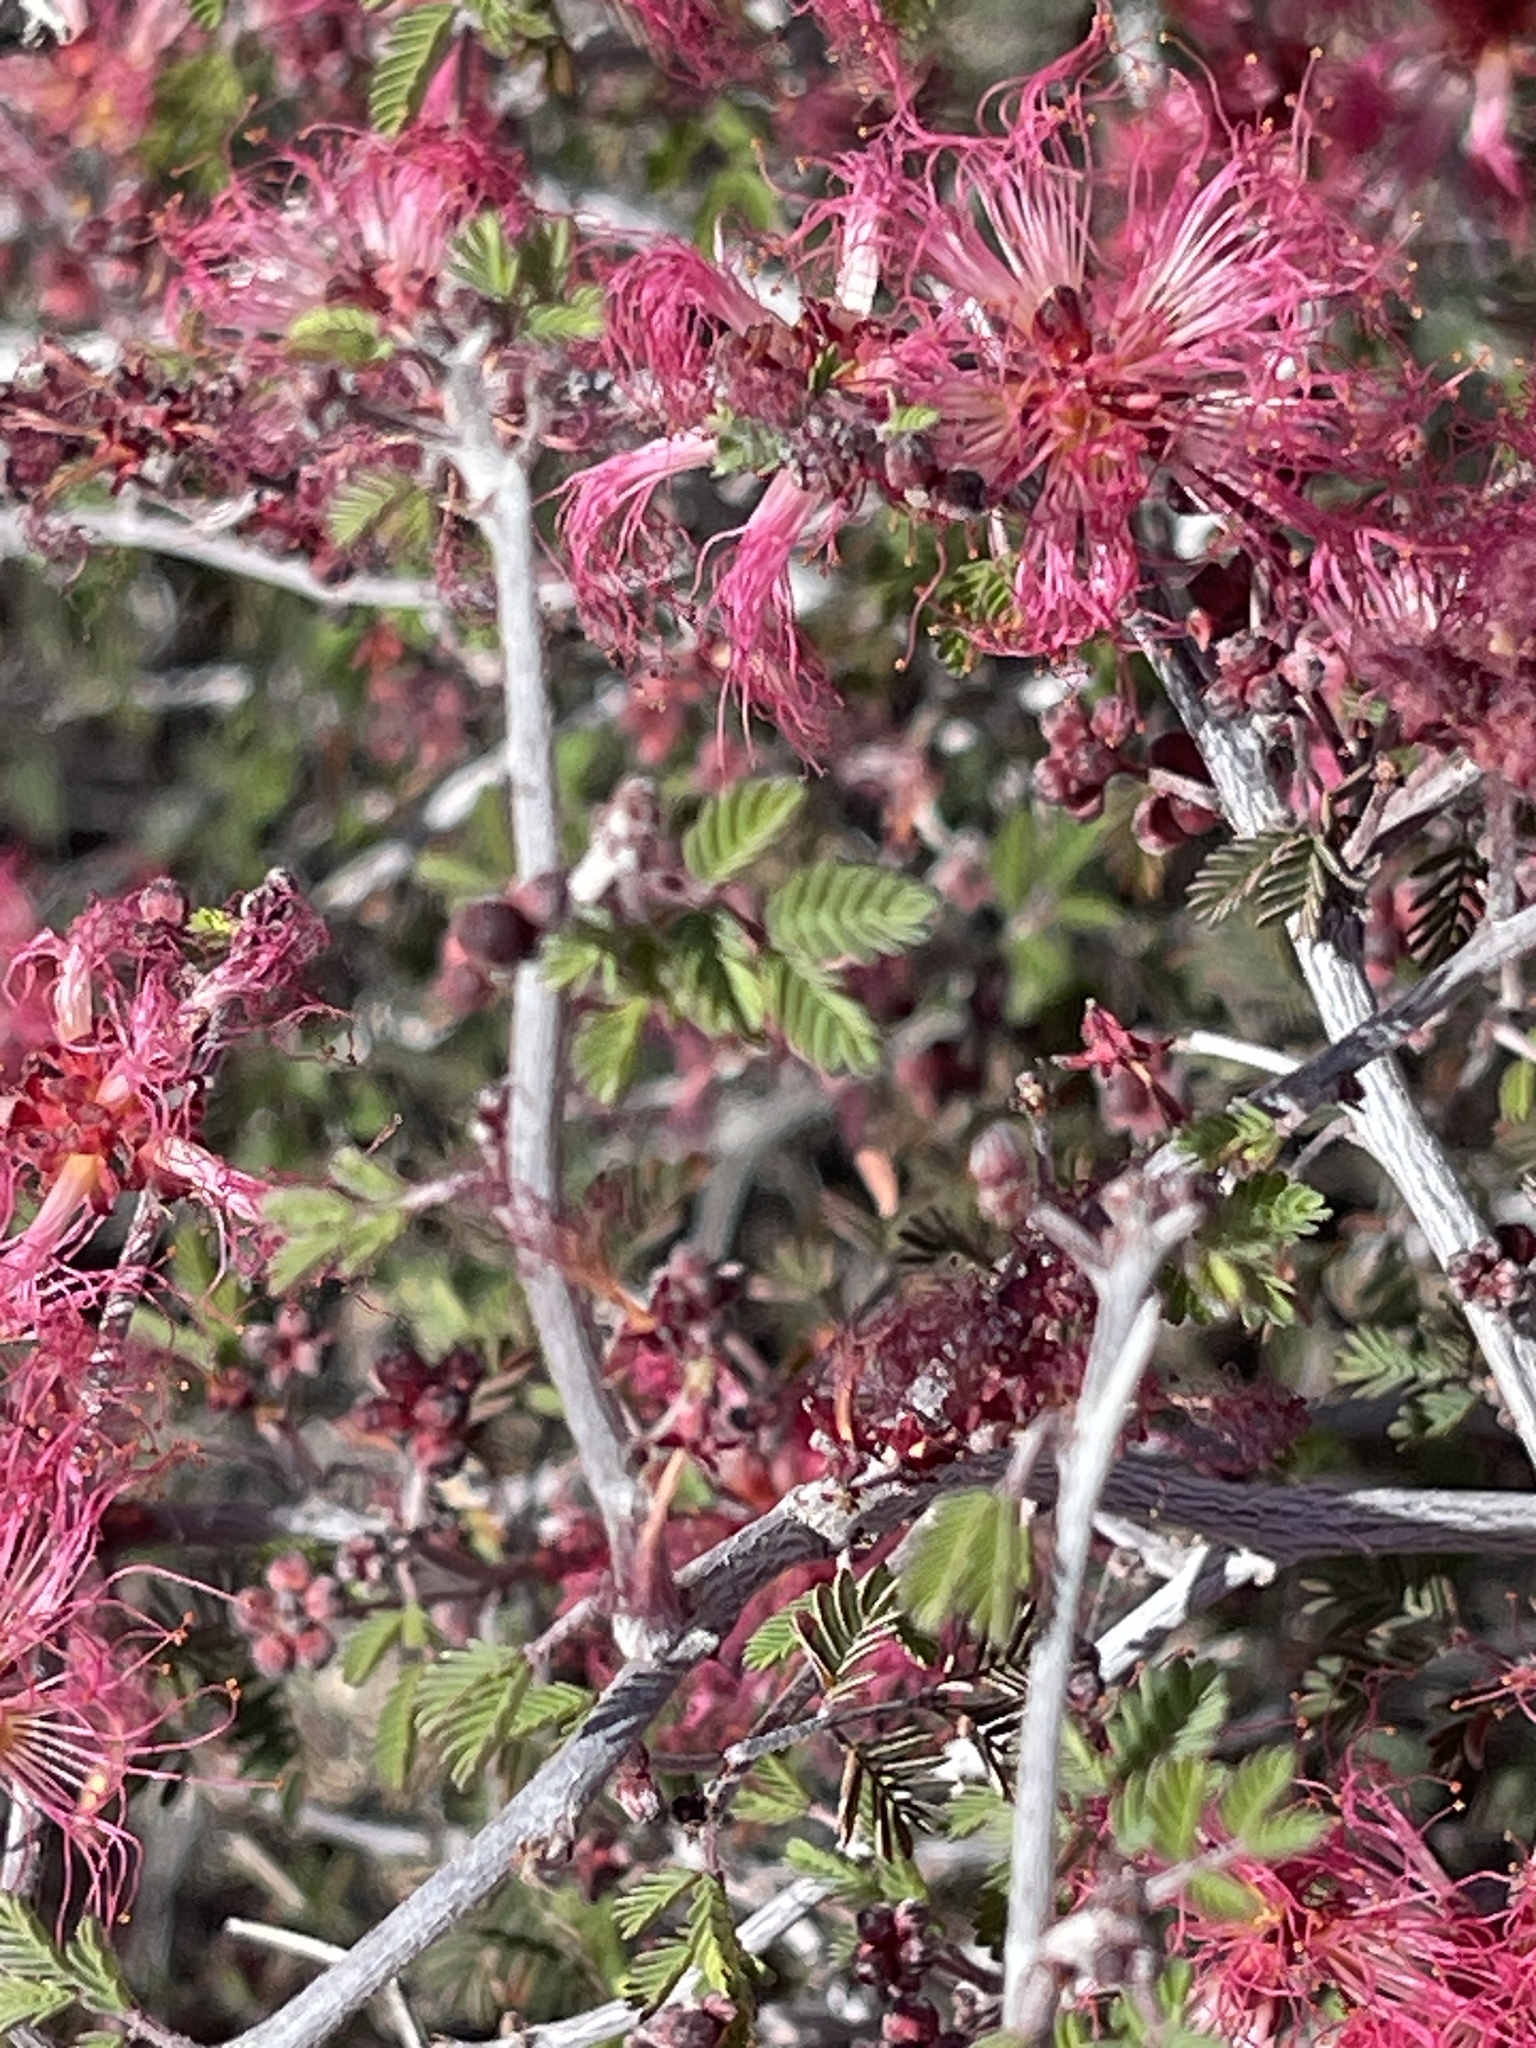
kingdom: Plantae
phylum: Tracheophyta
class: Magnoliopsida
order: Fabales
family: Fabaceae
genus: Calliandra
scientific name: Calliandra eriophylla
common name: Fairy-duster
